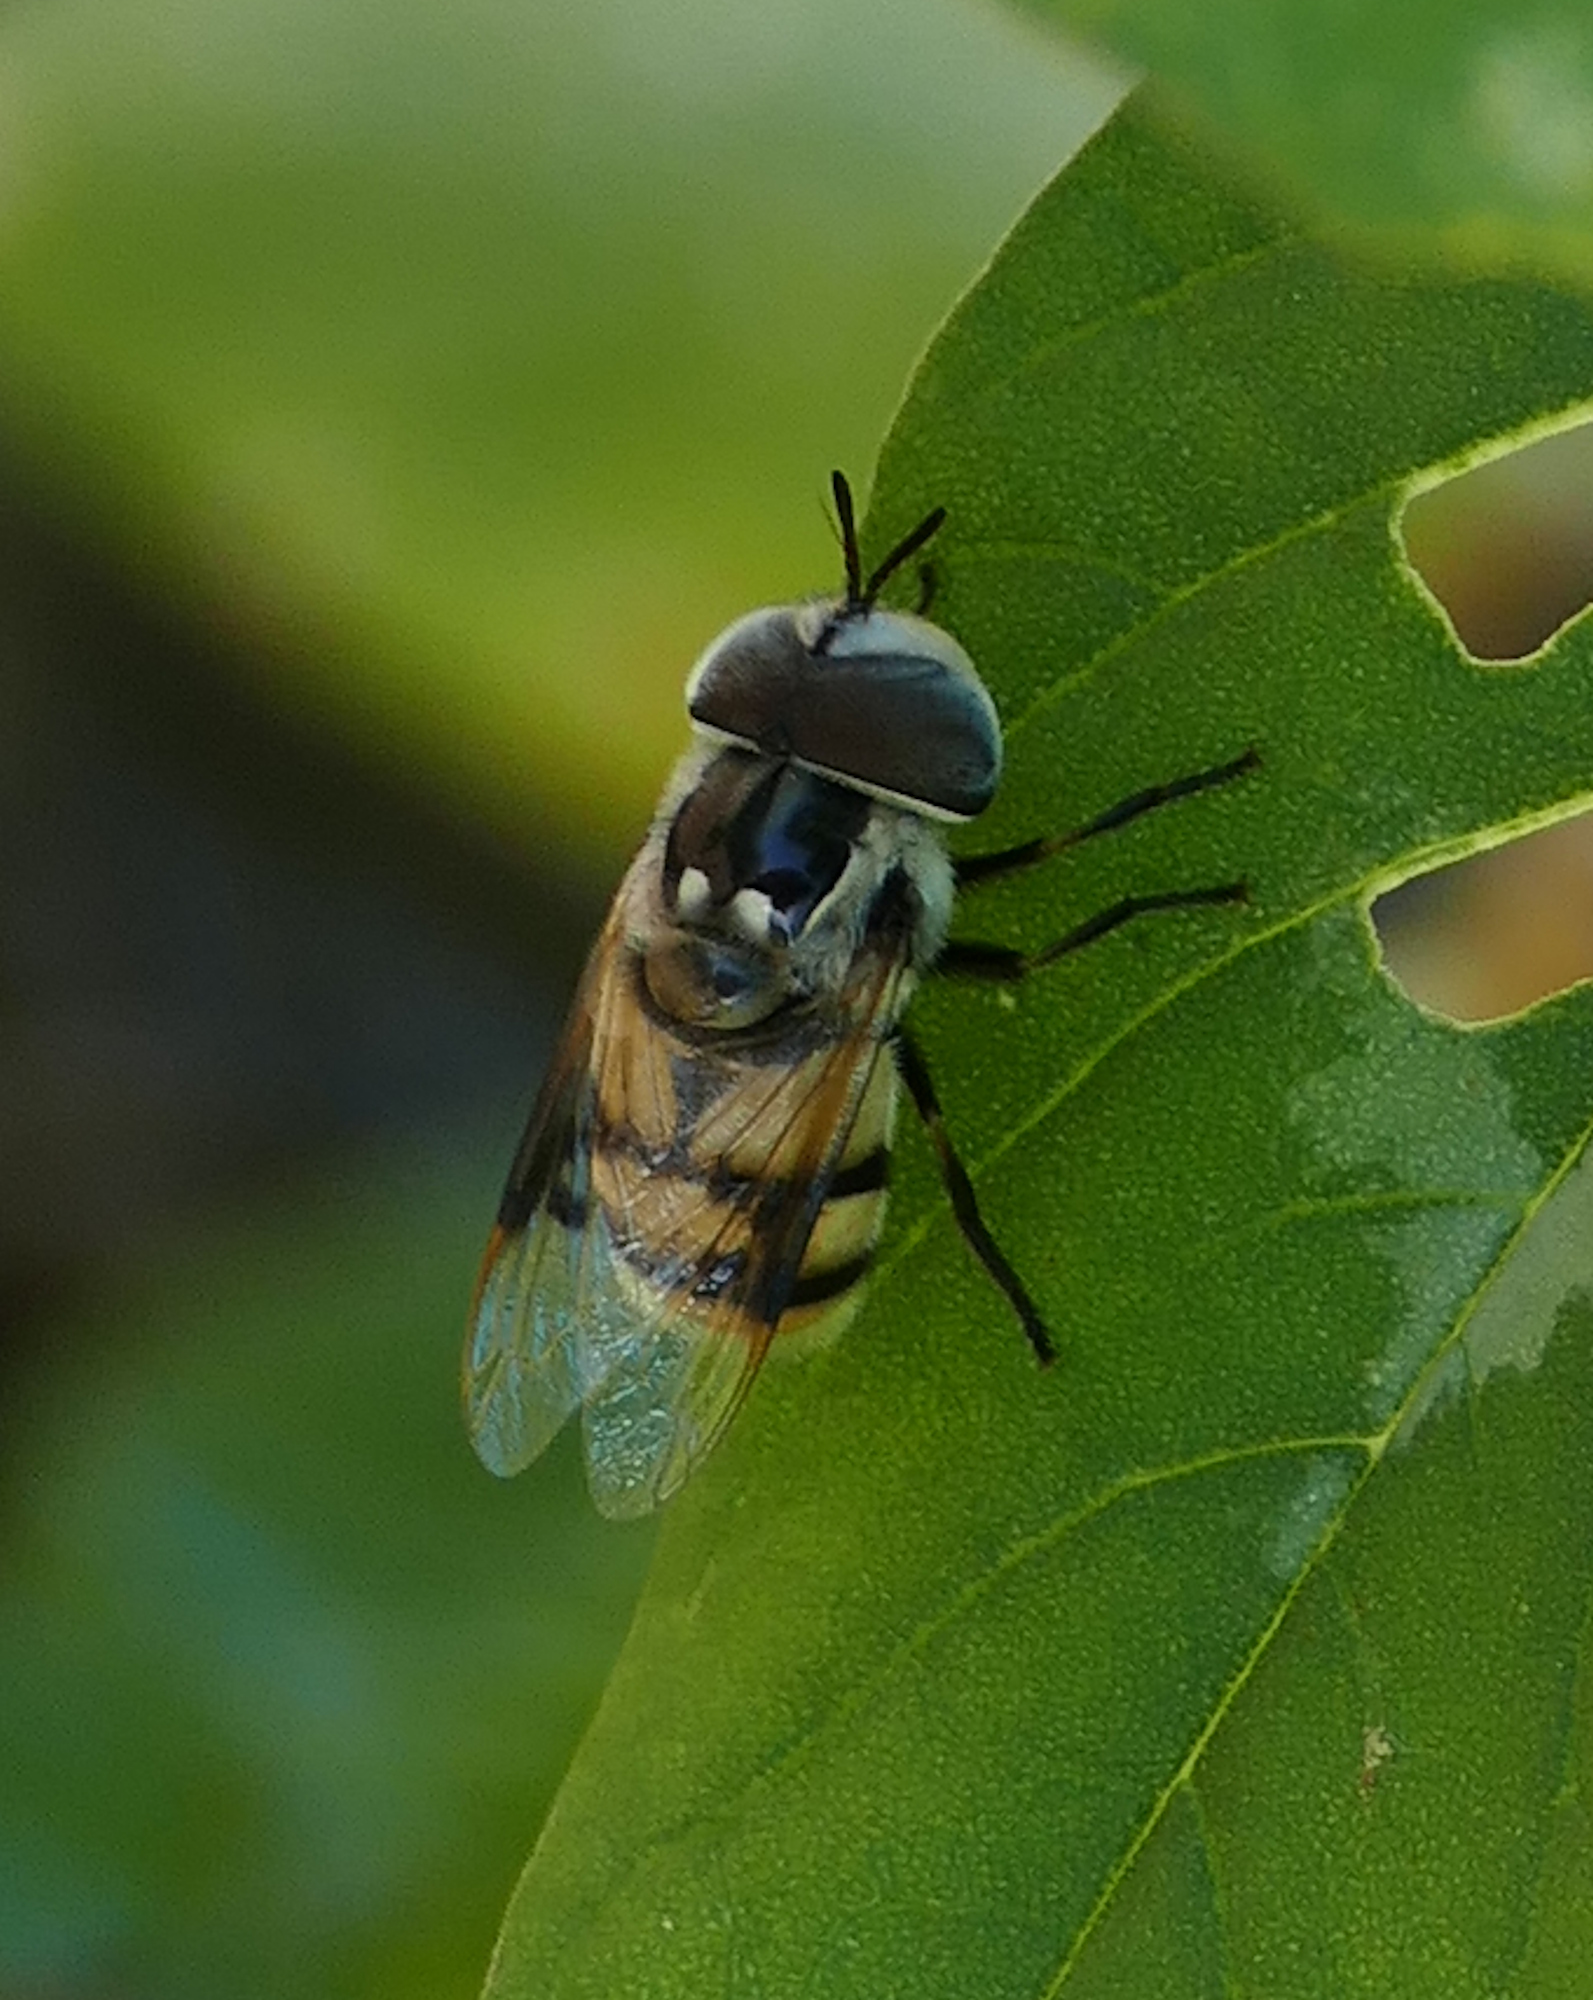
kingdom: Animalia
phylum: Arthropoda
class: Insecta
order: Diptera
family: Syrphidae
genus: Copestylum
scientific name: Copestylum fornax
